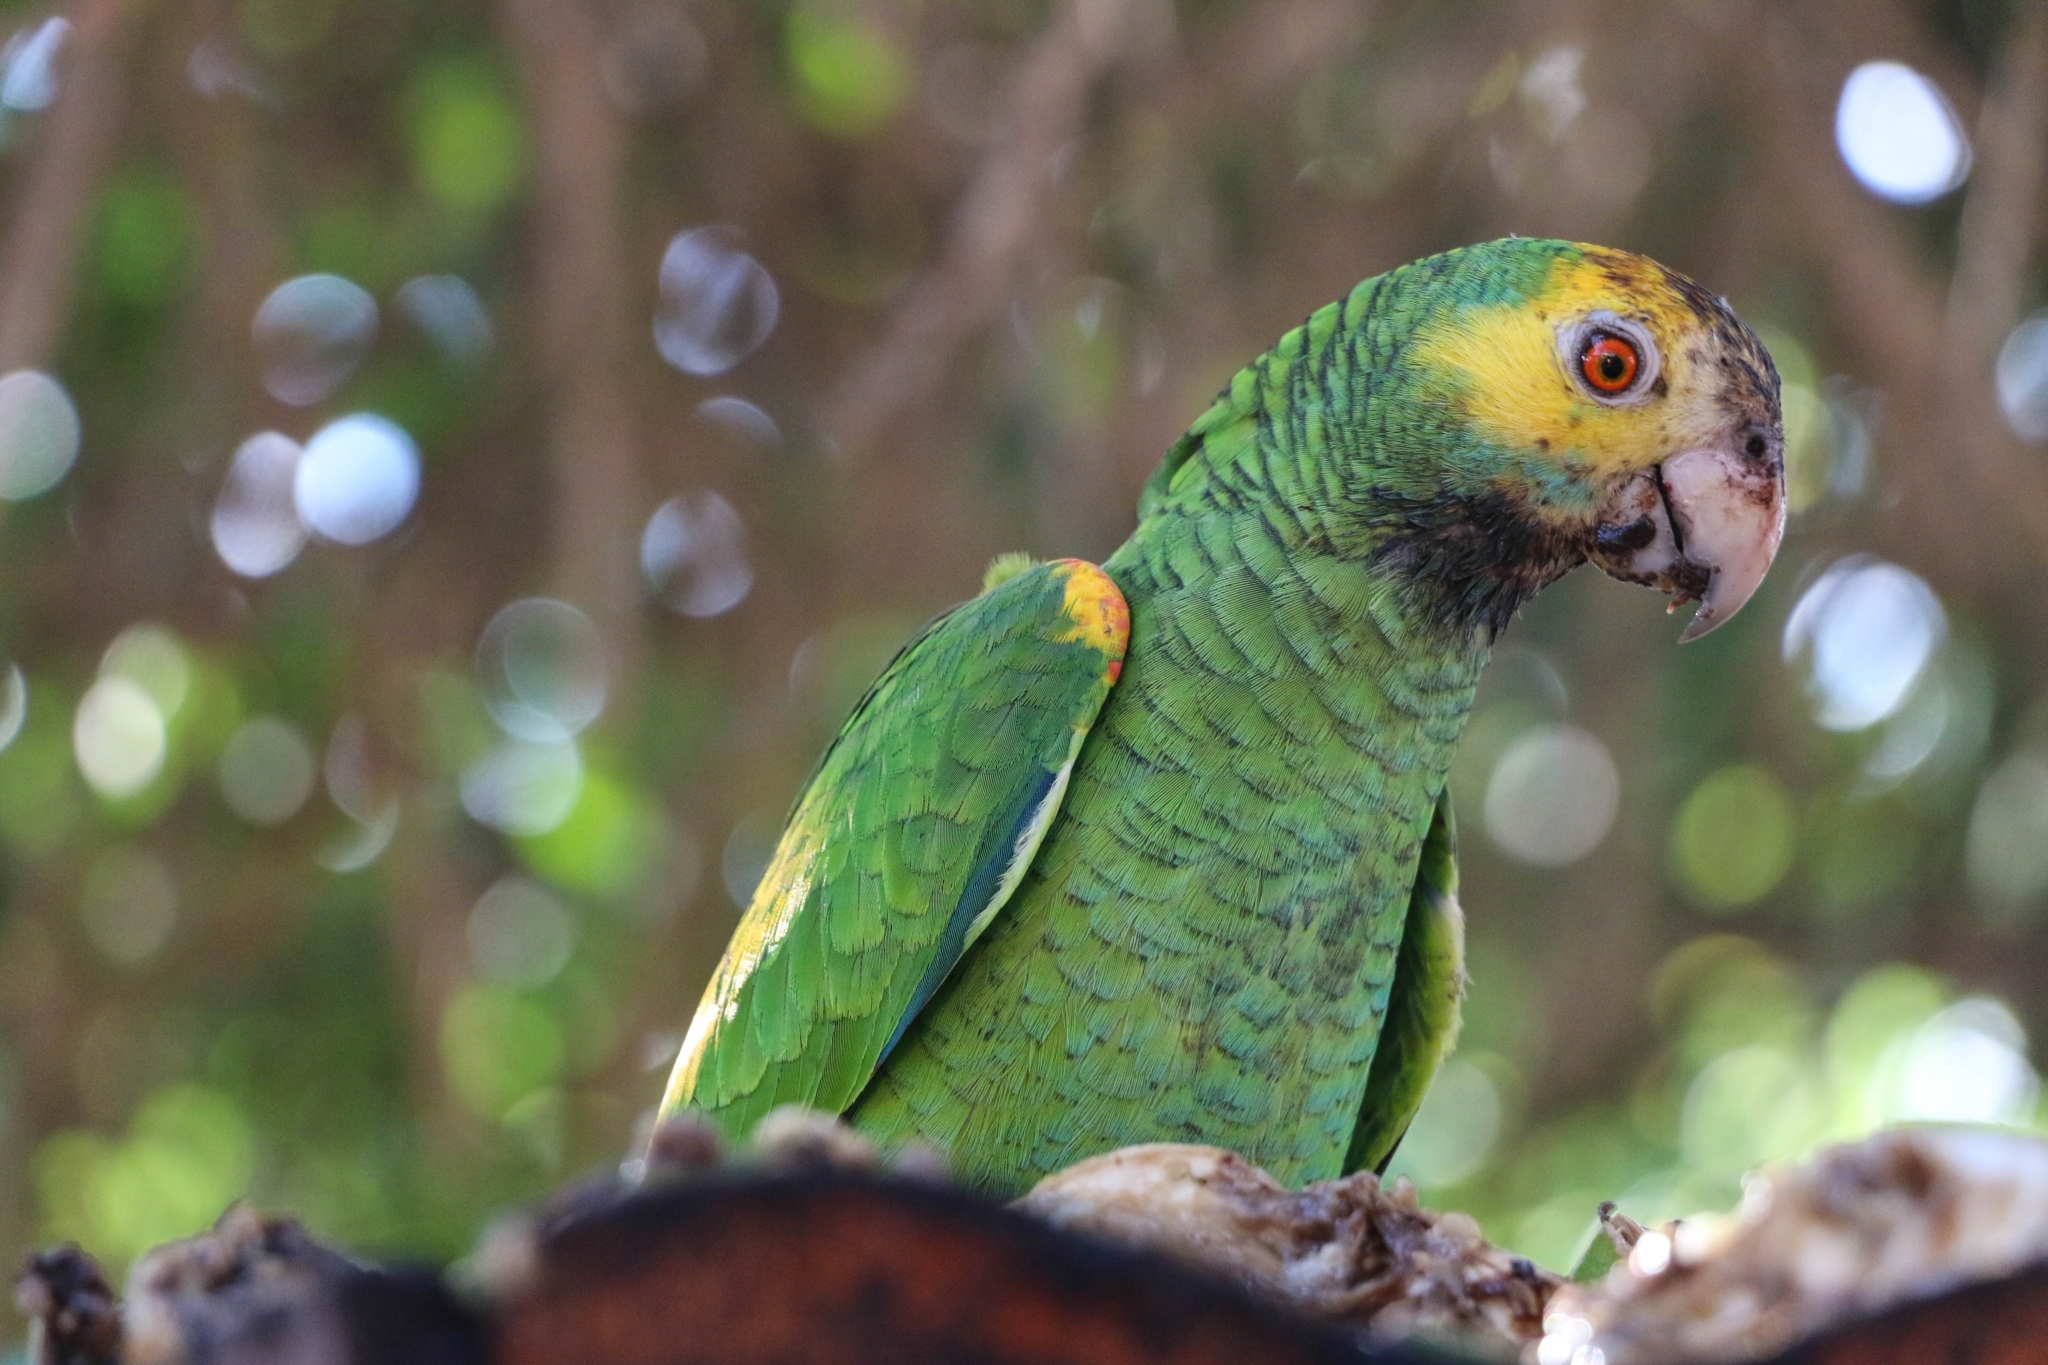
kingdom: Animalia
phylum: Chordata
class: Aves
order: Psittaciformes
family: Psittacidae
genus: Amazona
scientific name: Amazona barbadensis
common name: Yellow-shouldered amazon
